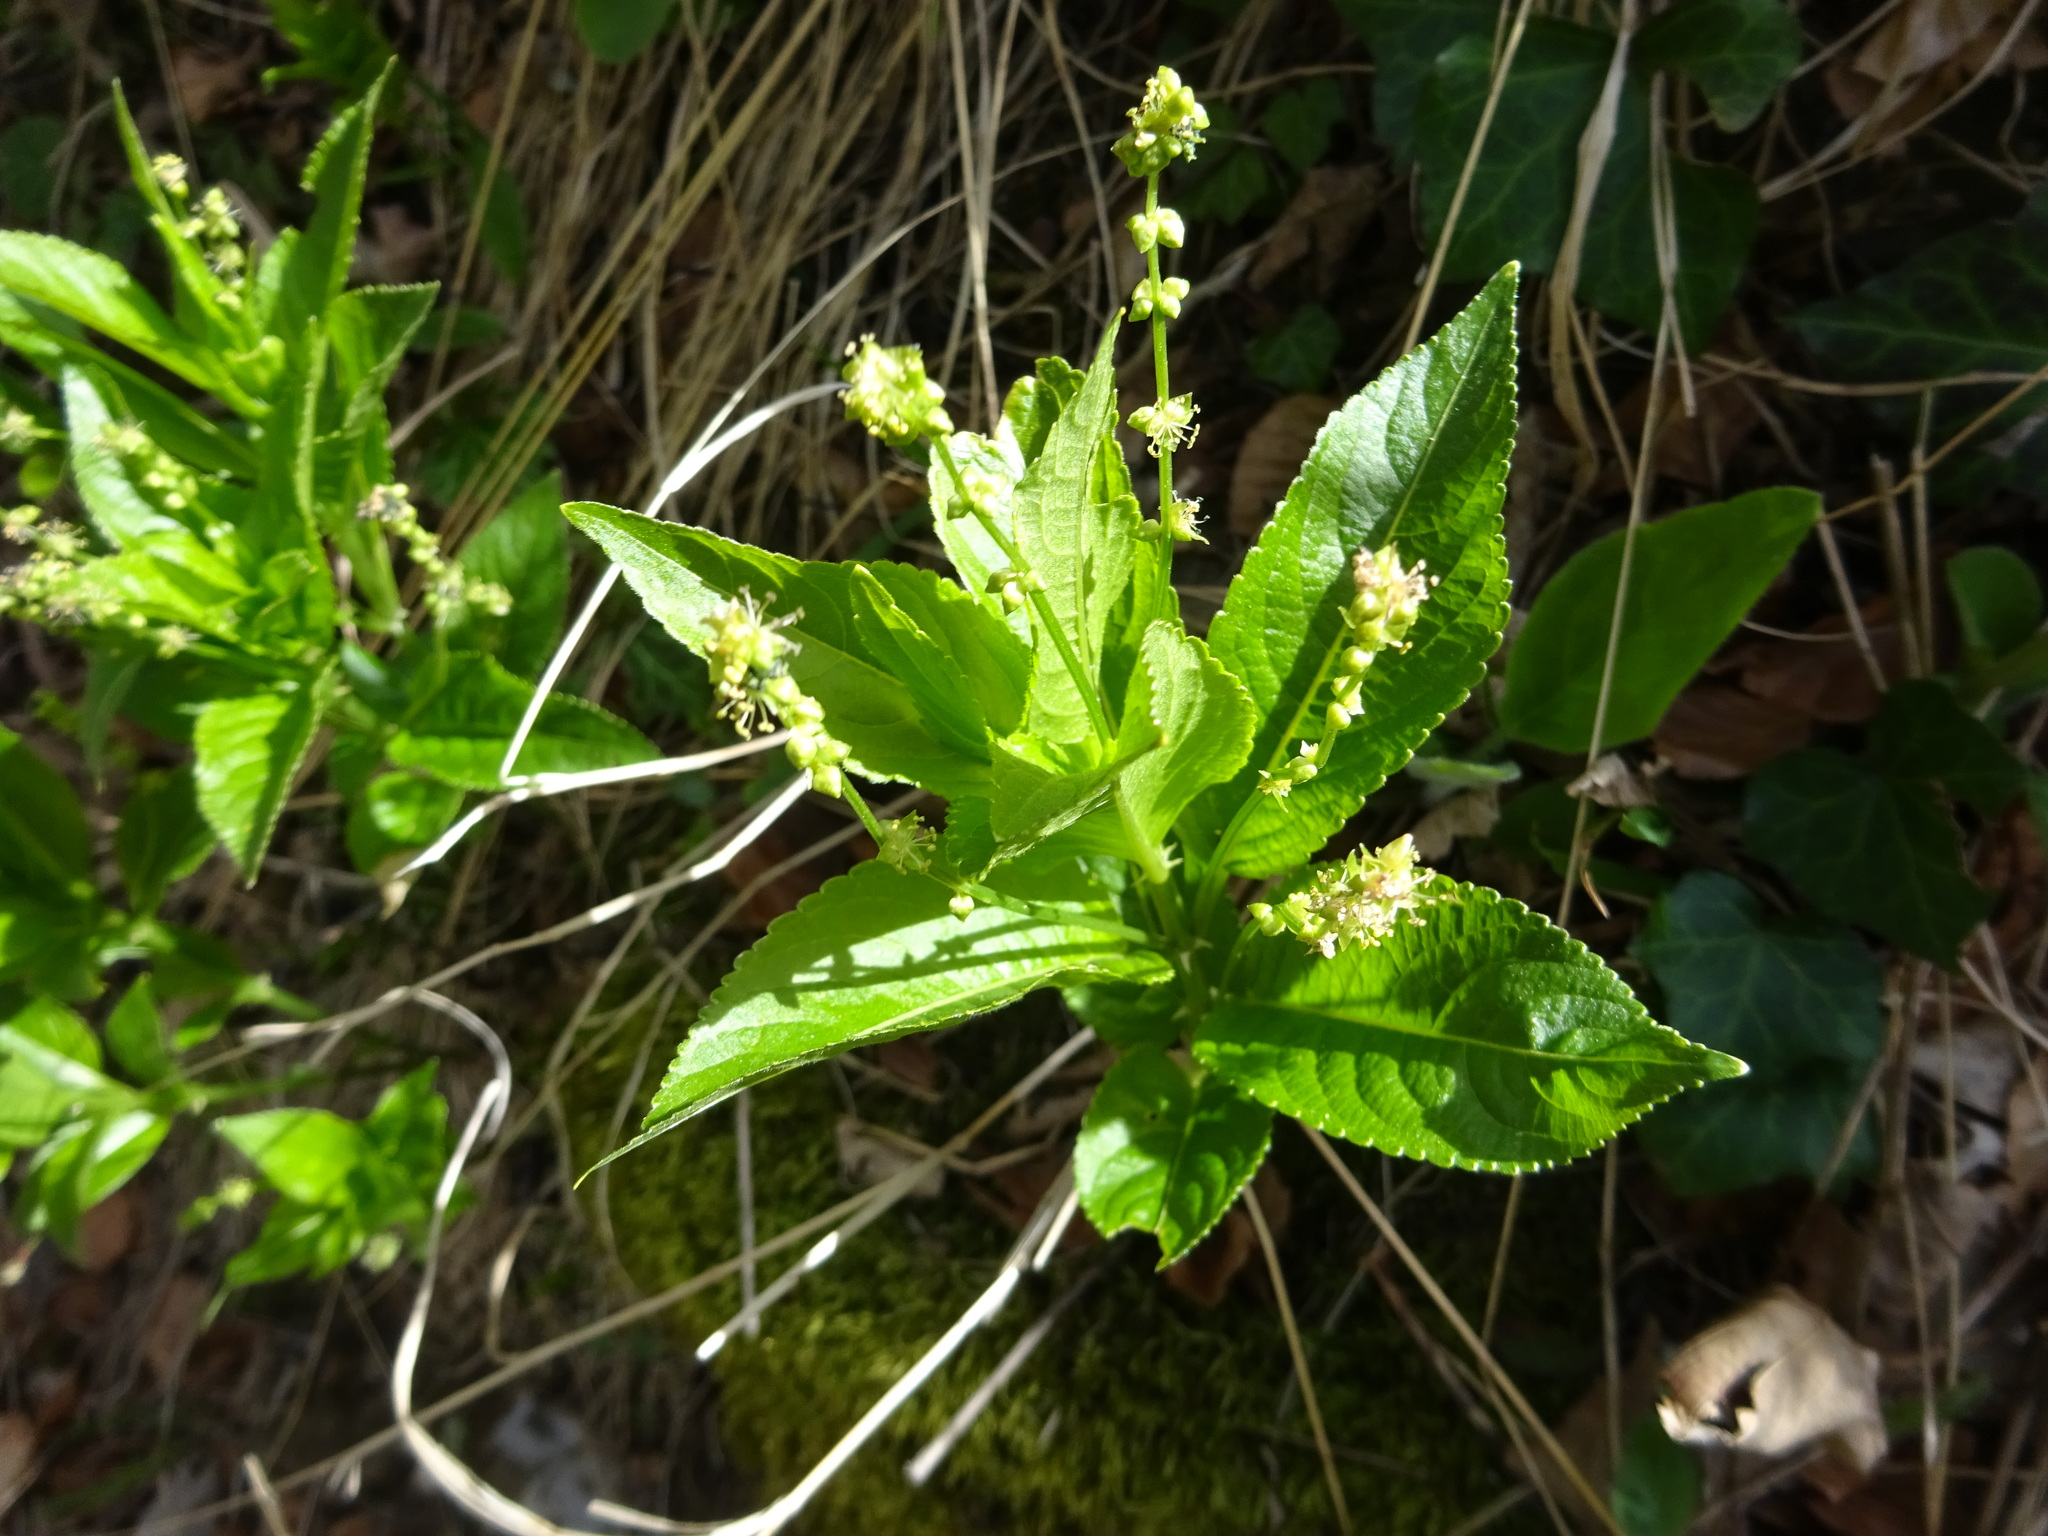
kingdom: Plantae
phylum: Tracheophyta
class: Magnoliopsida
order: Malpighiales
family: Euphorbiaceae
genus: Mercurialis
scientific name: Mercurialis perennis
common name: Dog mercury
